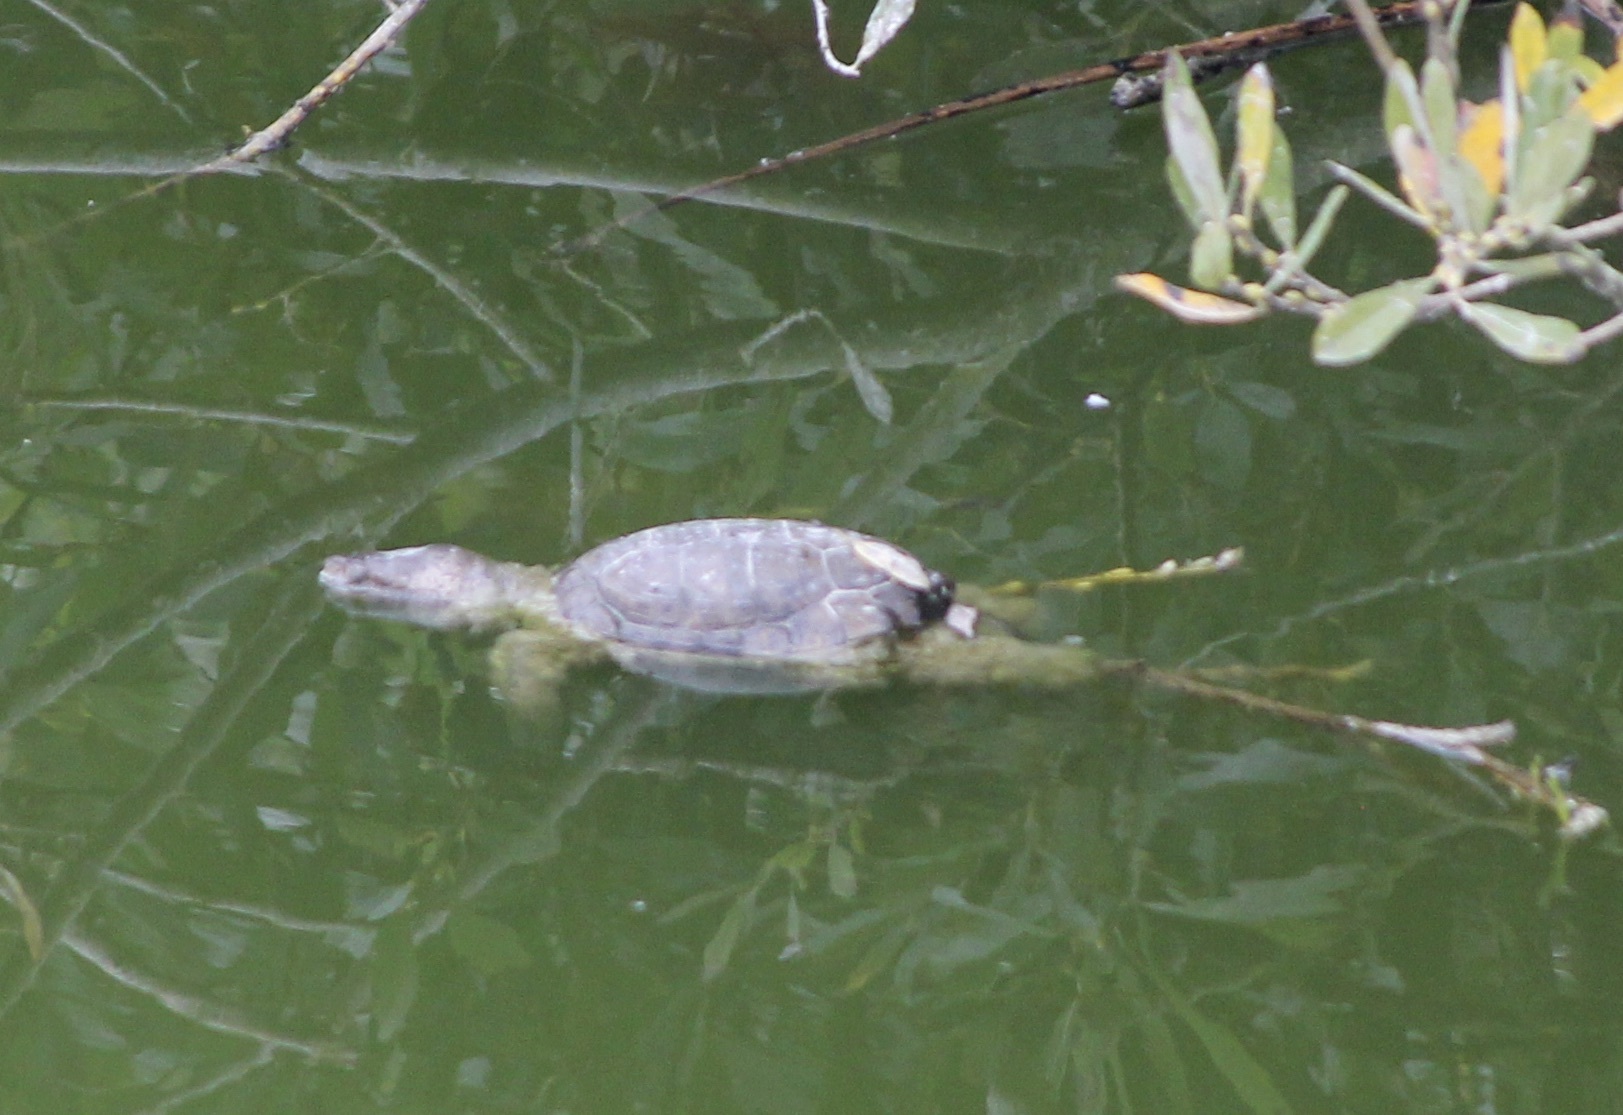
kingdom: Animalia
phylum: Chordata
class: Testudines
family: Emydidae
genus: Actinemys
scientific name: Actinemys marmorata
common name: Western pond turtle
